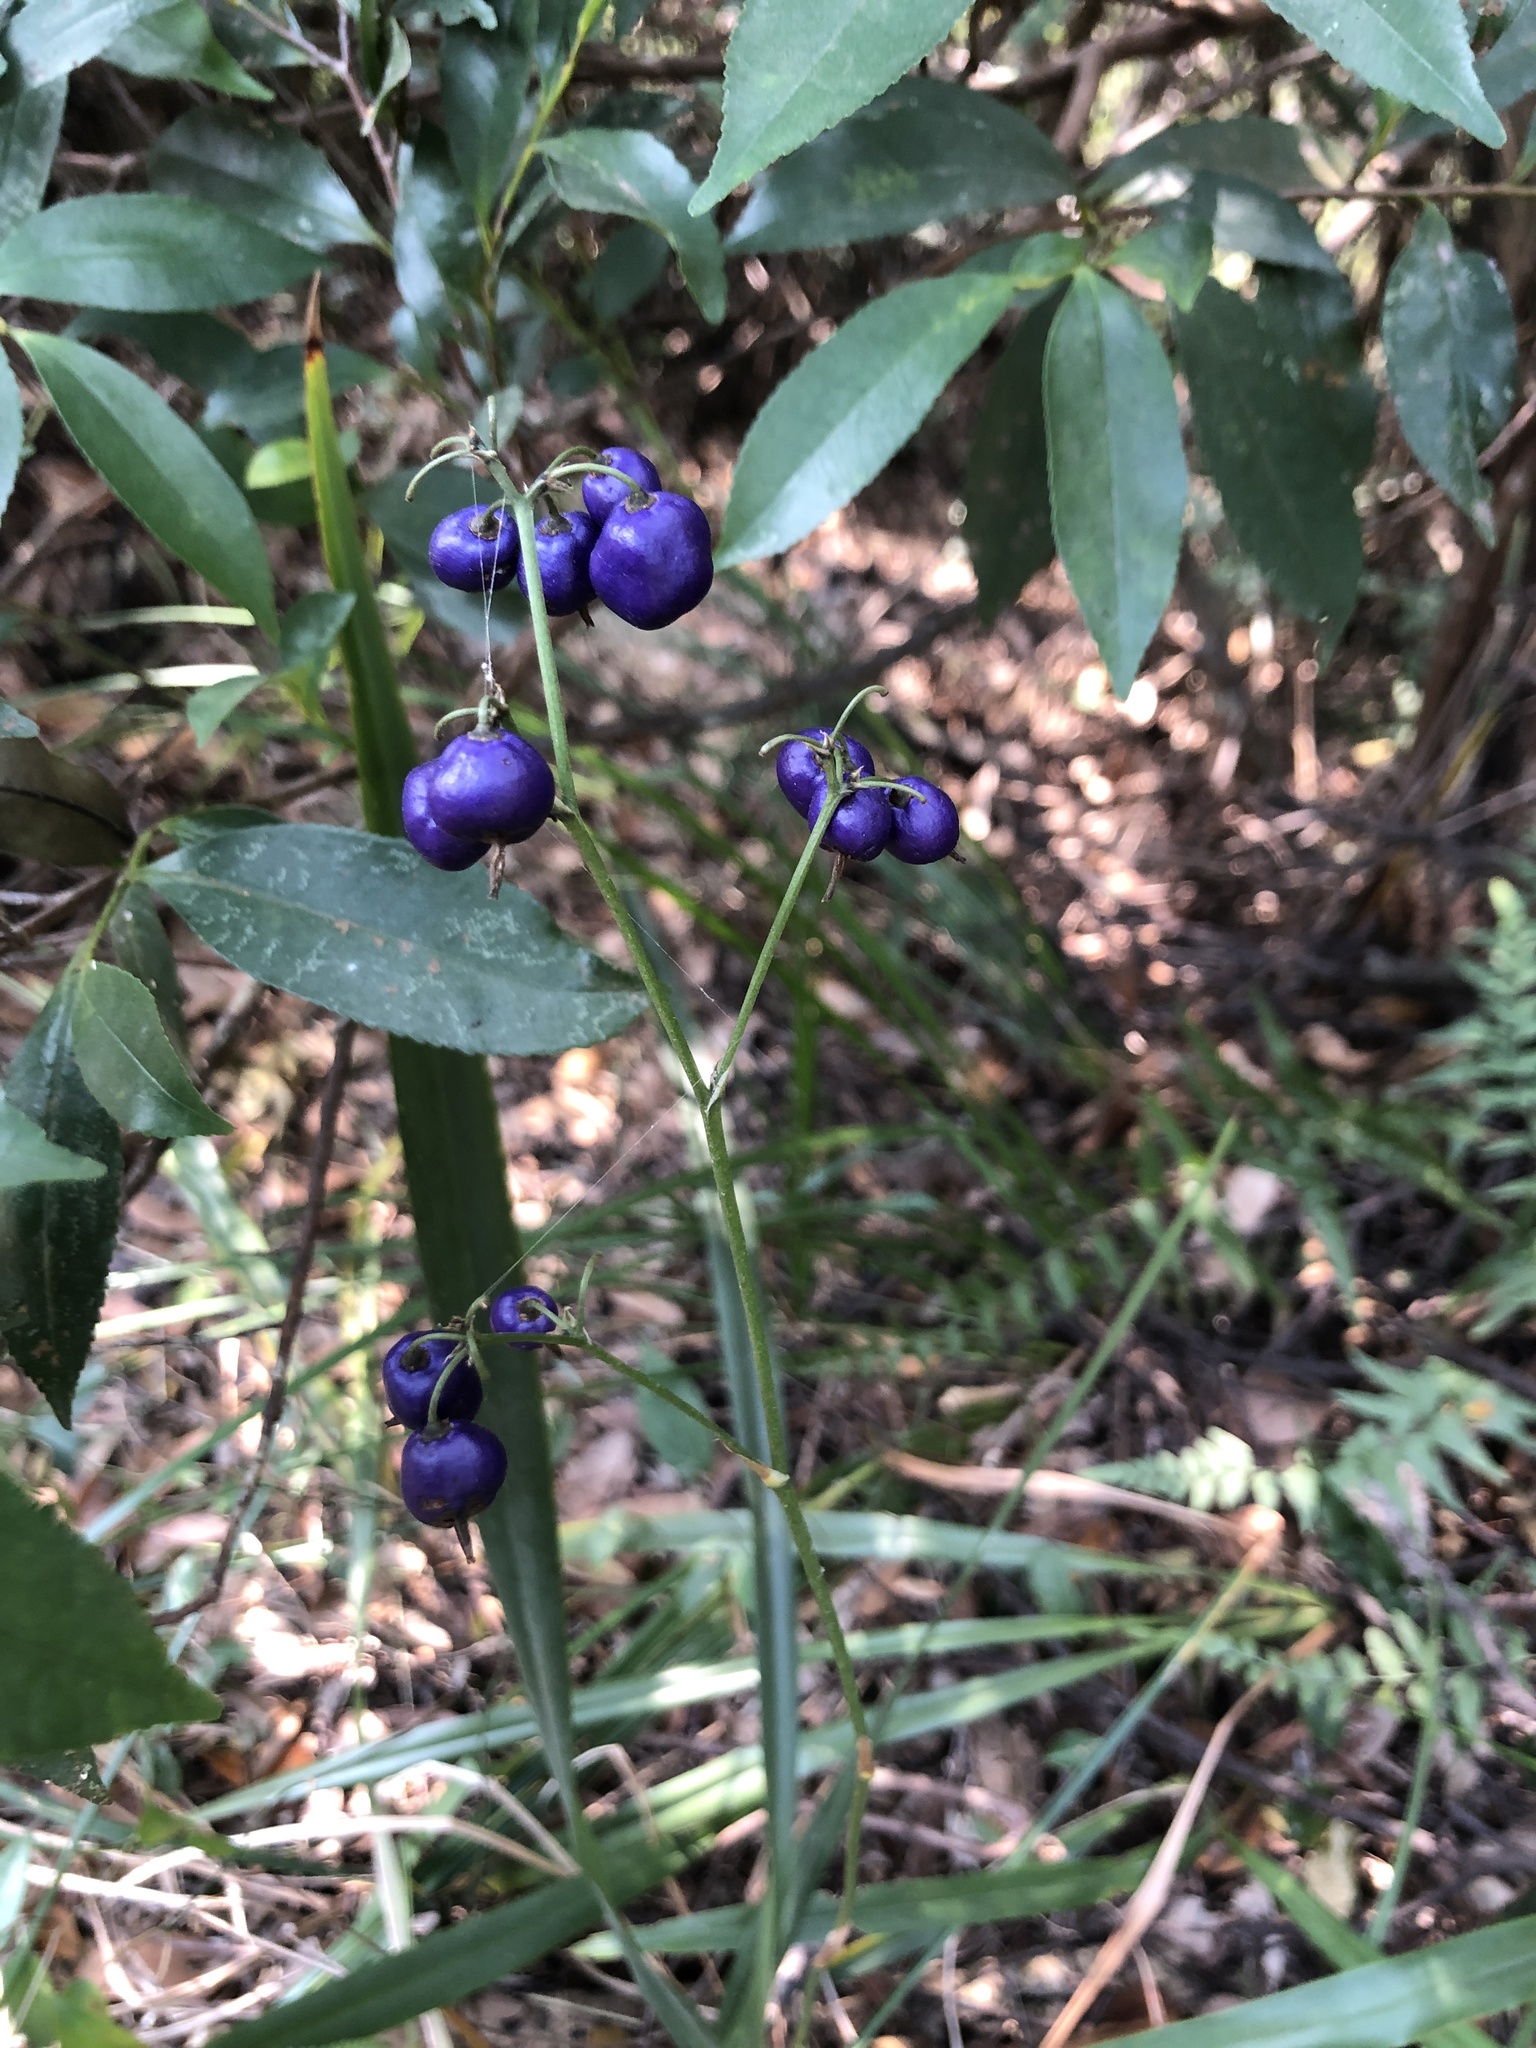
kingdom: Plantae
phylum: Tracheophyta
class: Liliopsida
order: Asparagales
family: Asphodelaceae
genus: Dianella
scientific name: Dianella ensifolia
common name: New zealand lilyplant
